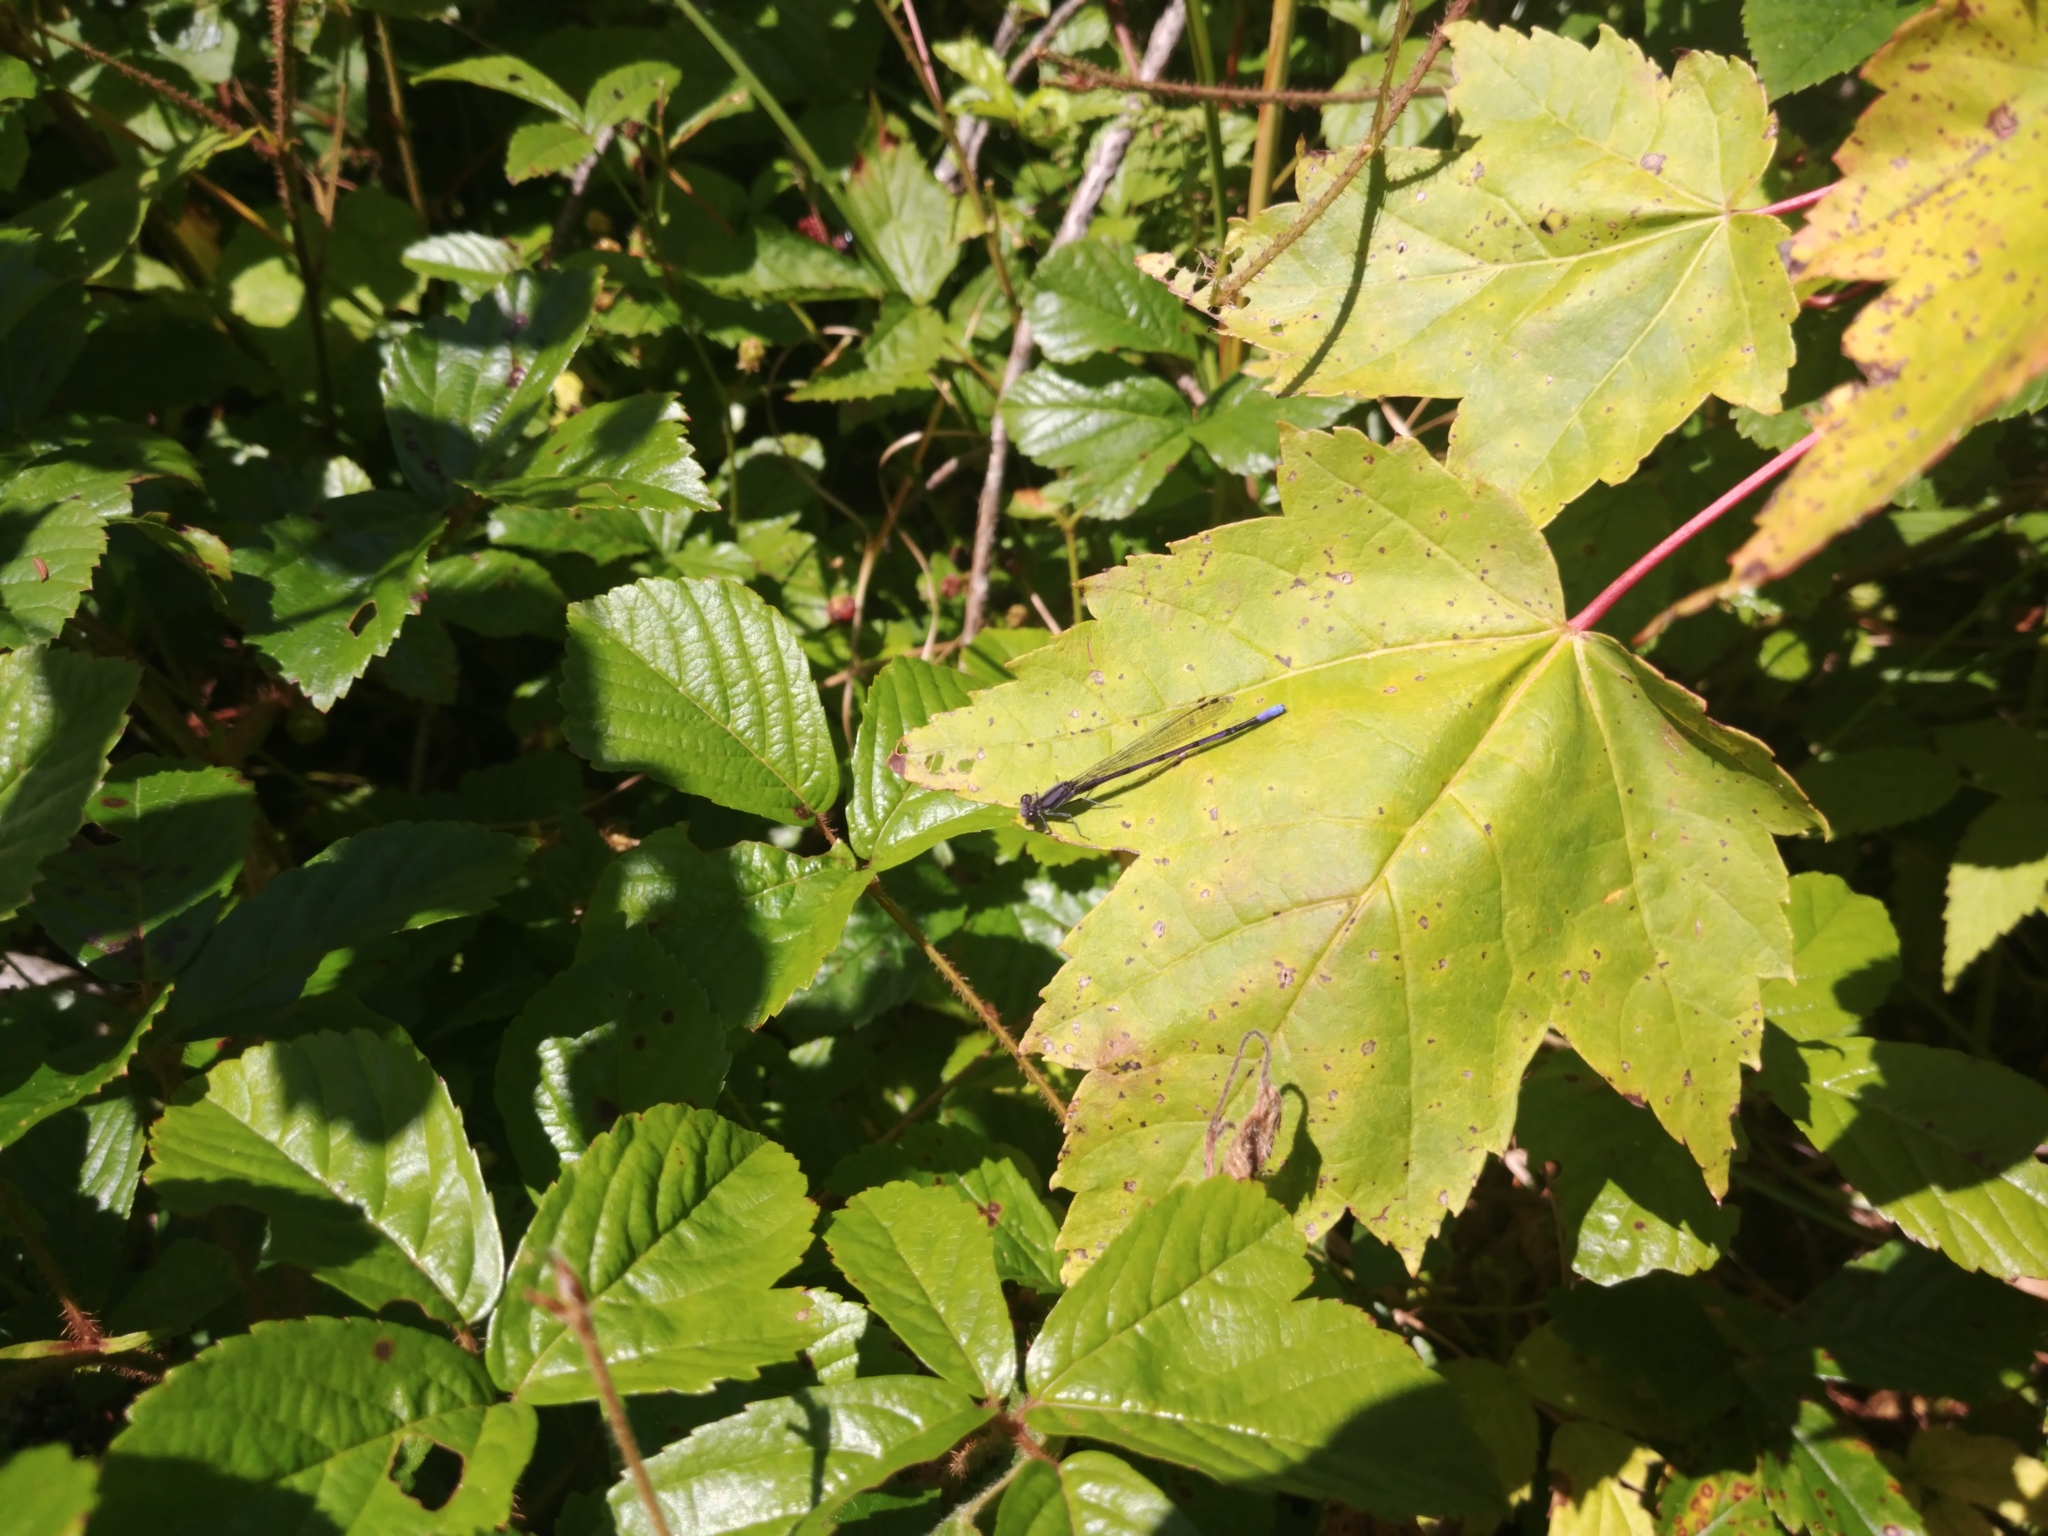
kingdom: Plantae
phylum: Tracheophyta
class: Magnoliopsida
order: Sapindales
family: Sapindaceae
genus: Acer
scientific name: Acer rubrum
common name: Red maple
